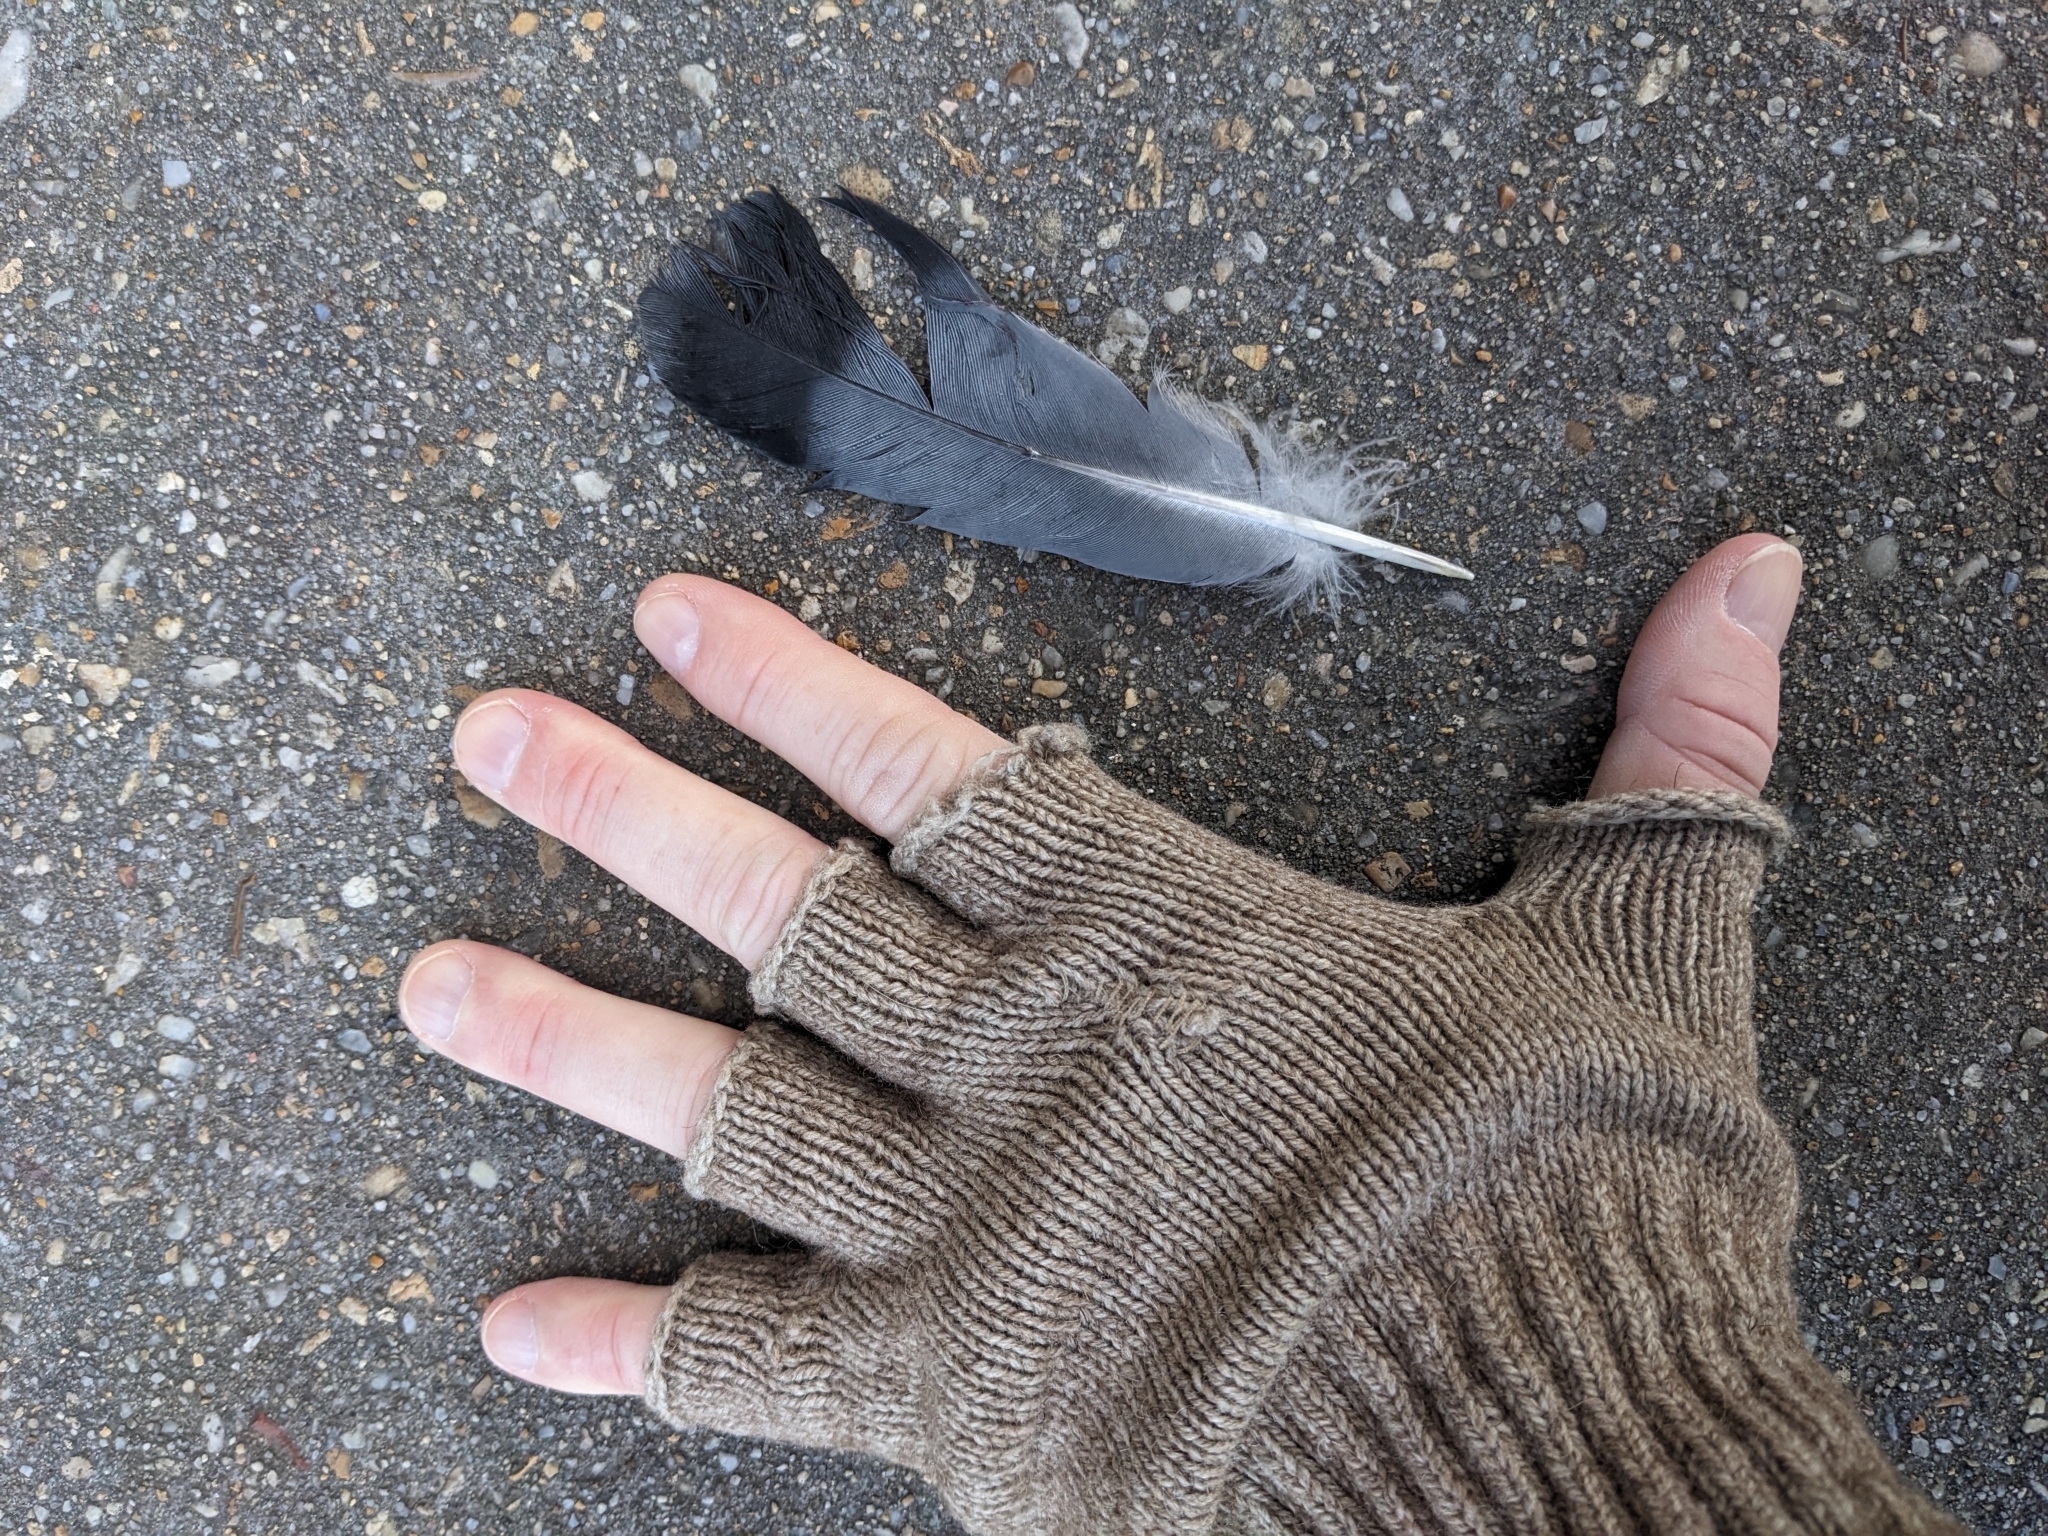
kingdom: Animalia
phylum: Chordata
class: Aves
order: Columbiformes
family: Columbidae
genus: Columba
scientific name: Columba livia
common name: Rock pigeon
